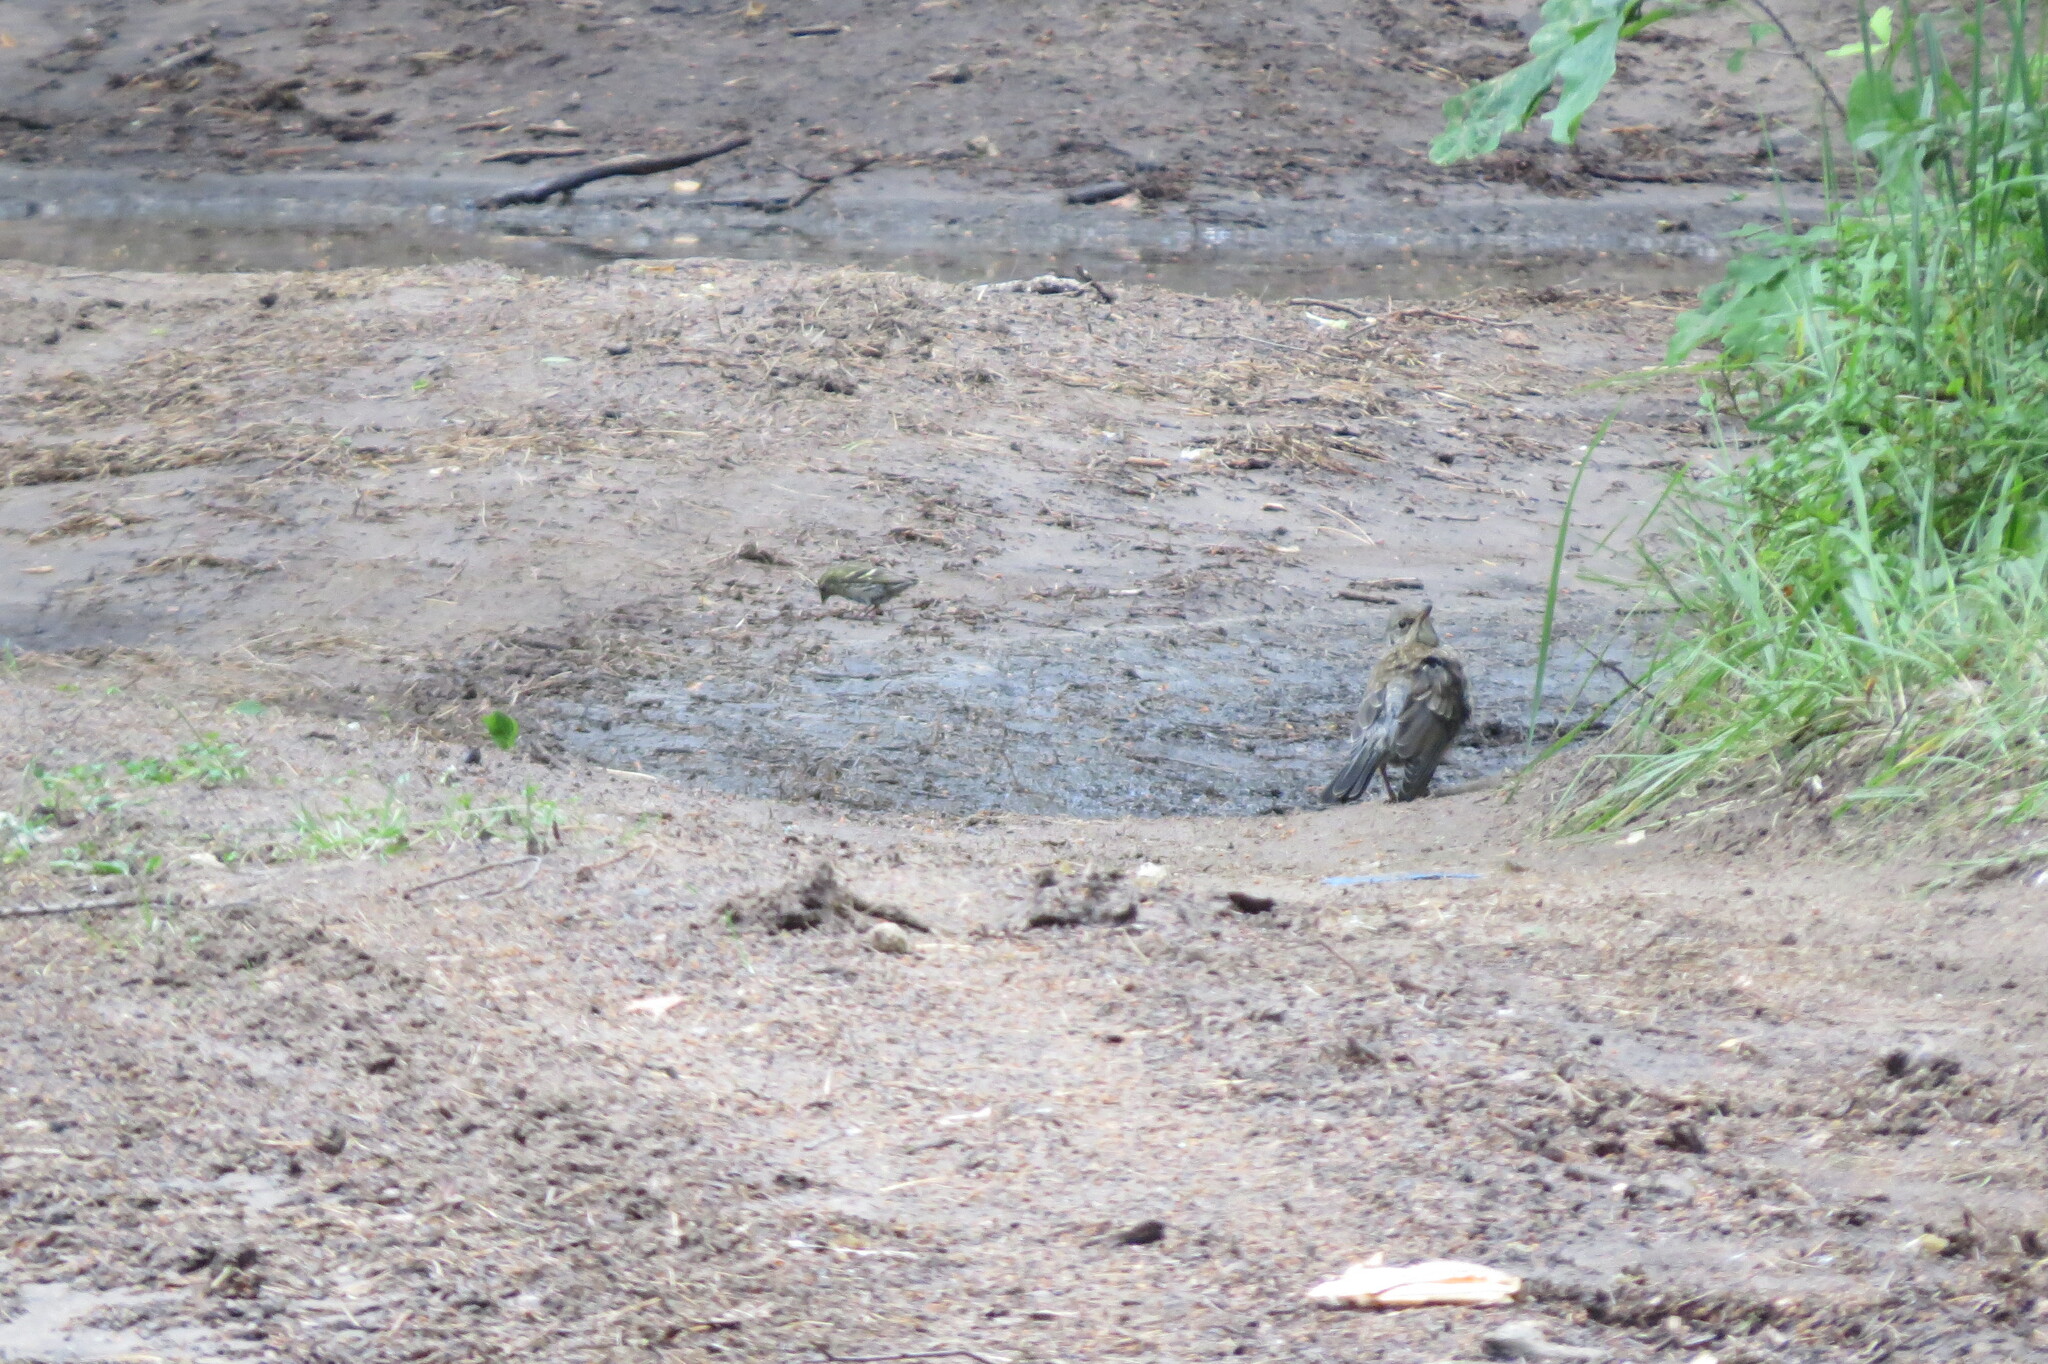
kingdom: Animalia
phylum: Chordata
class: Aves
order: Passeriformes
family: Turdidae
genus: Turdus
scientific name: Turdus pilaris
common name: Fieldfare
